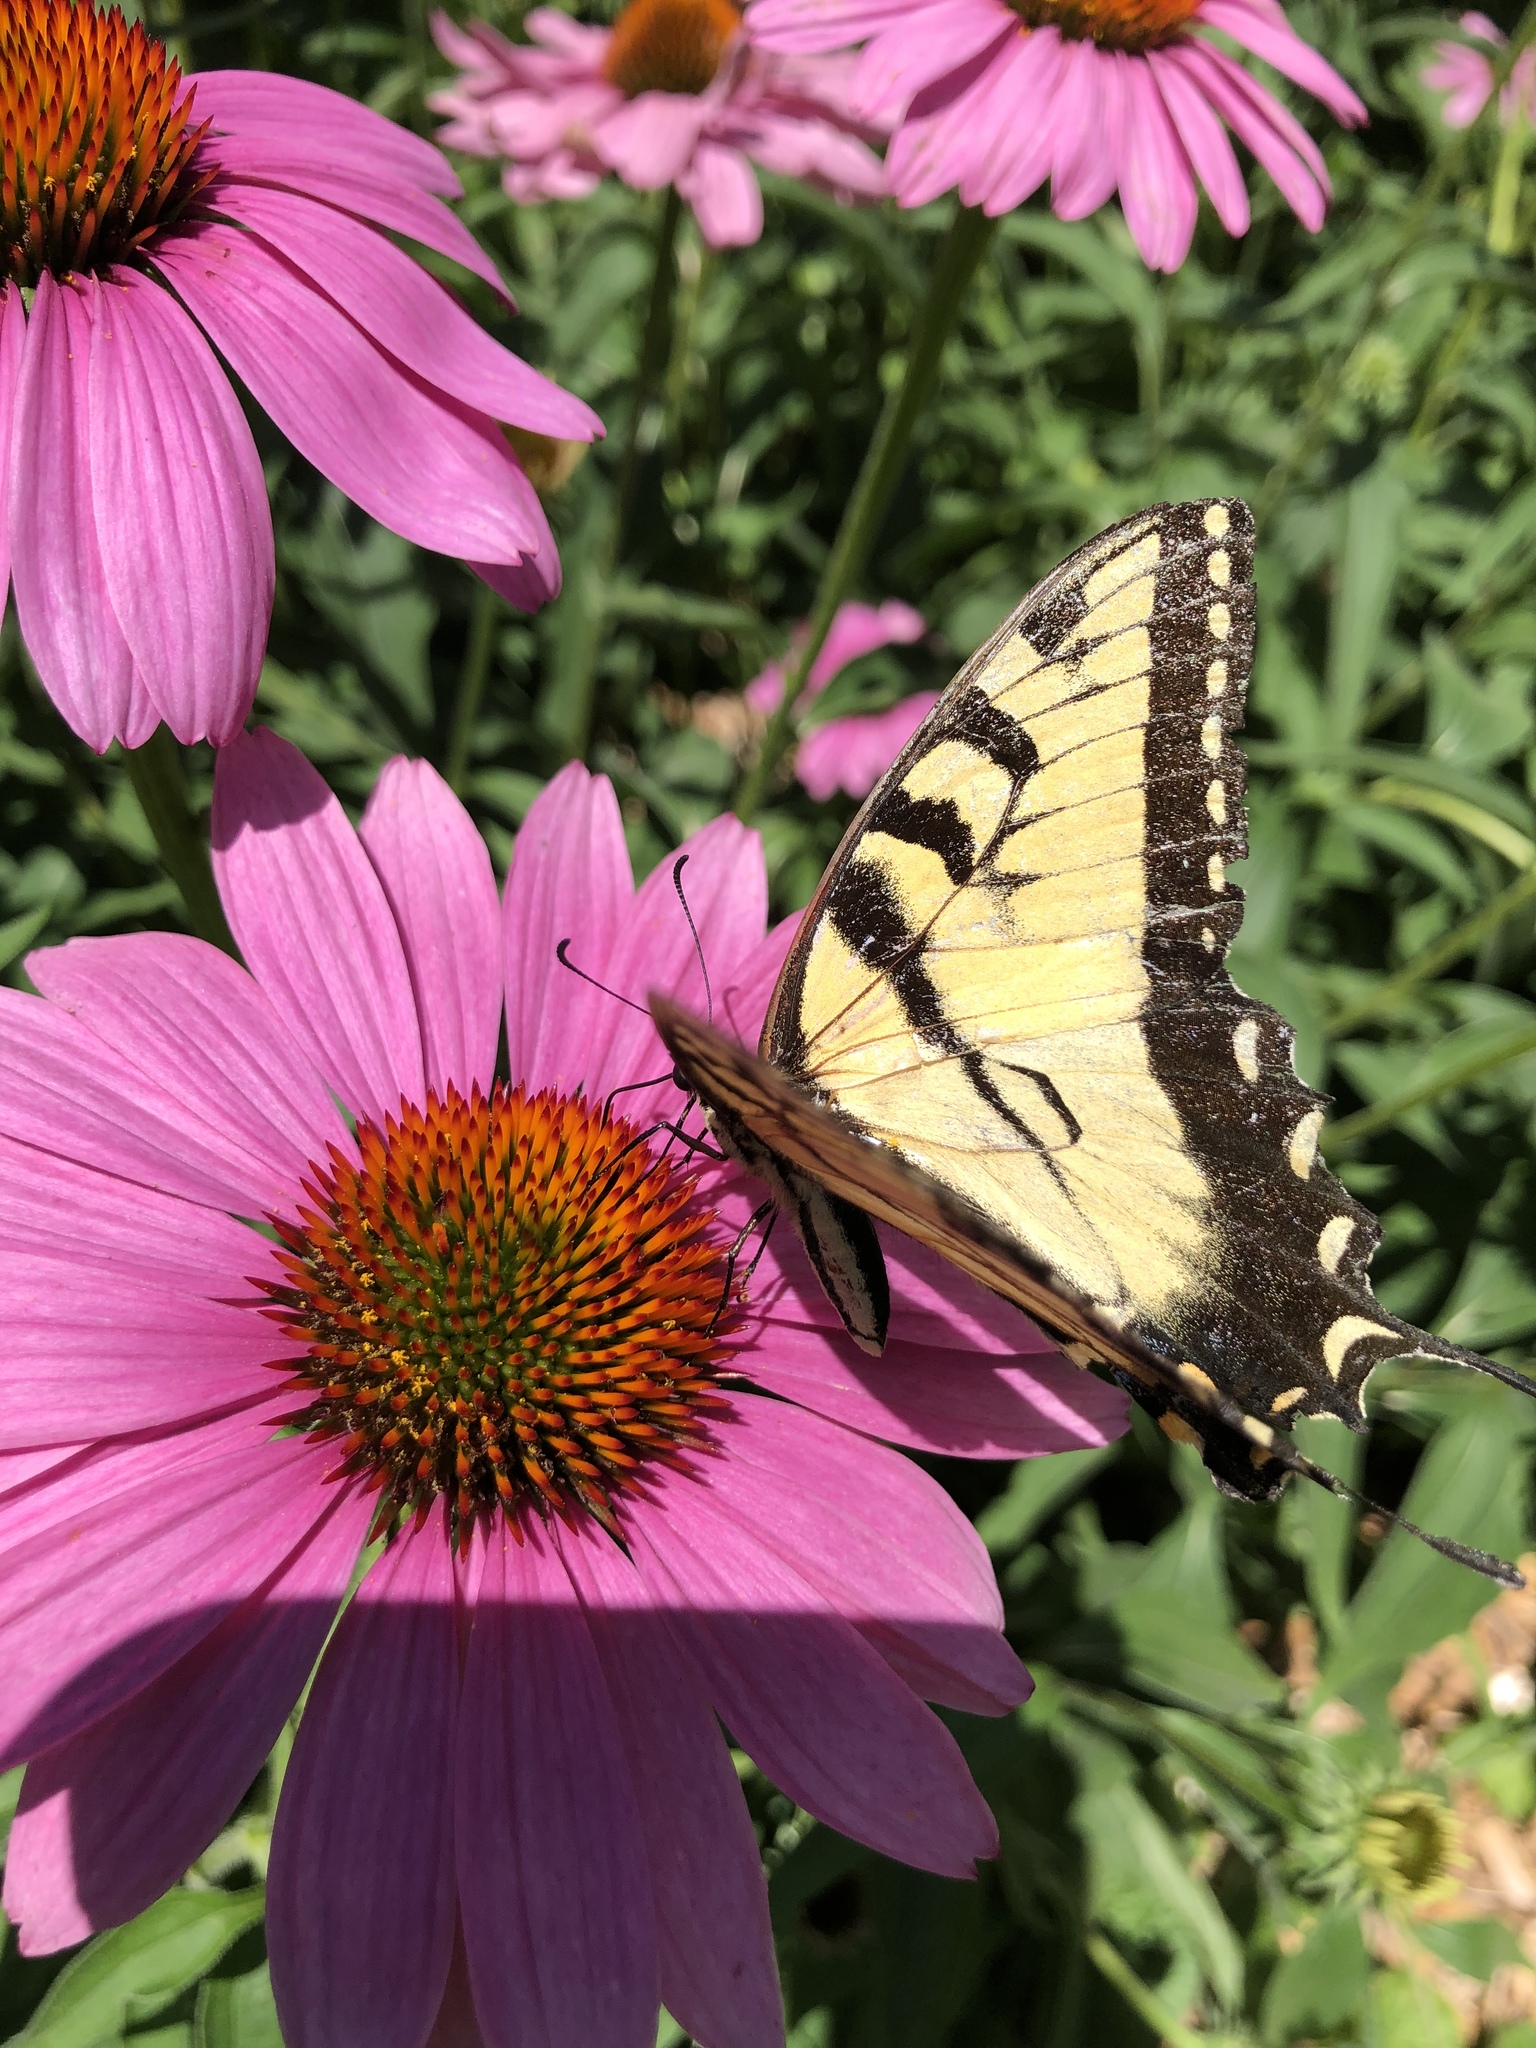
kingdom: Animalia
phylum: Arthropoda
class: Insecta
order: Lepidoptera
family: Papilionidae
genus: Papilio
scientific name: Papilio glaucus
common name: Tiger swallowtail
